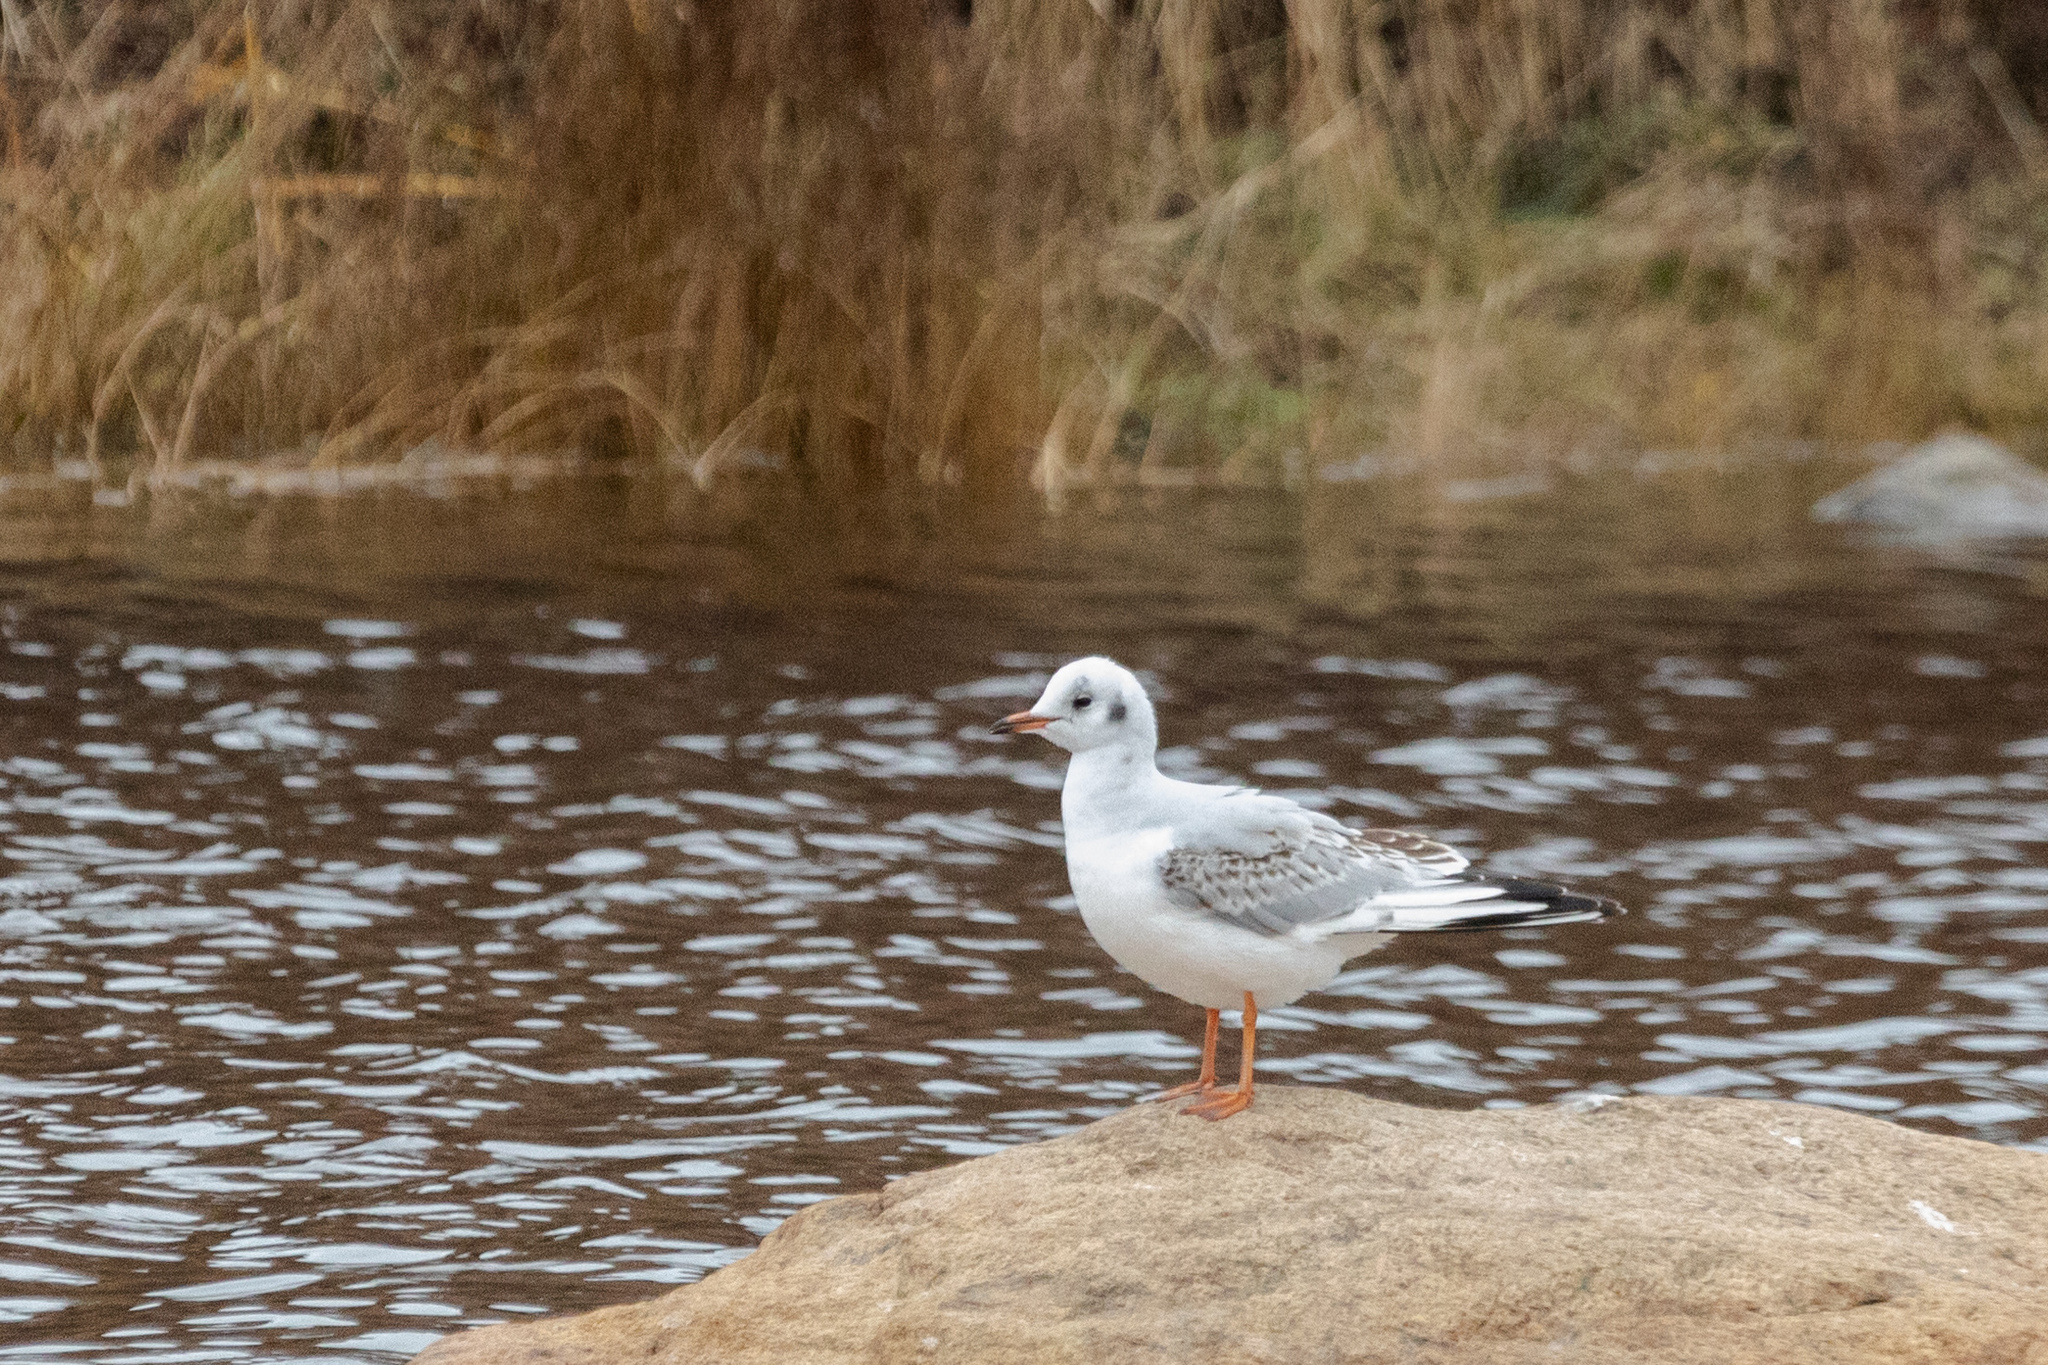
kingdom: Animalia
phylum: Chordata
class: Aves
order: Charadriiformes
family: Laridae
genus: Chroicocephalus
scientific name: Chroicocephalus ridibundus
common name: Black-headed gull
